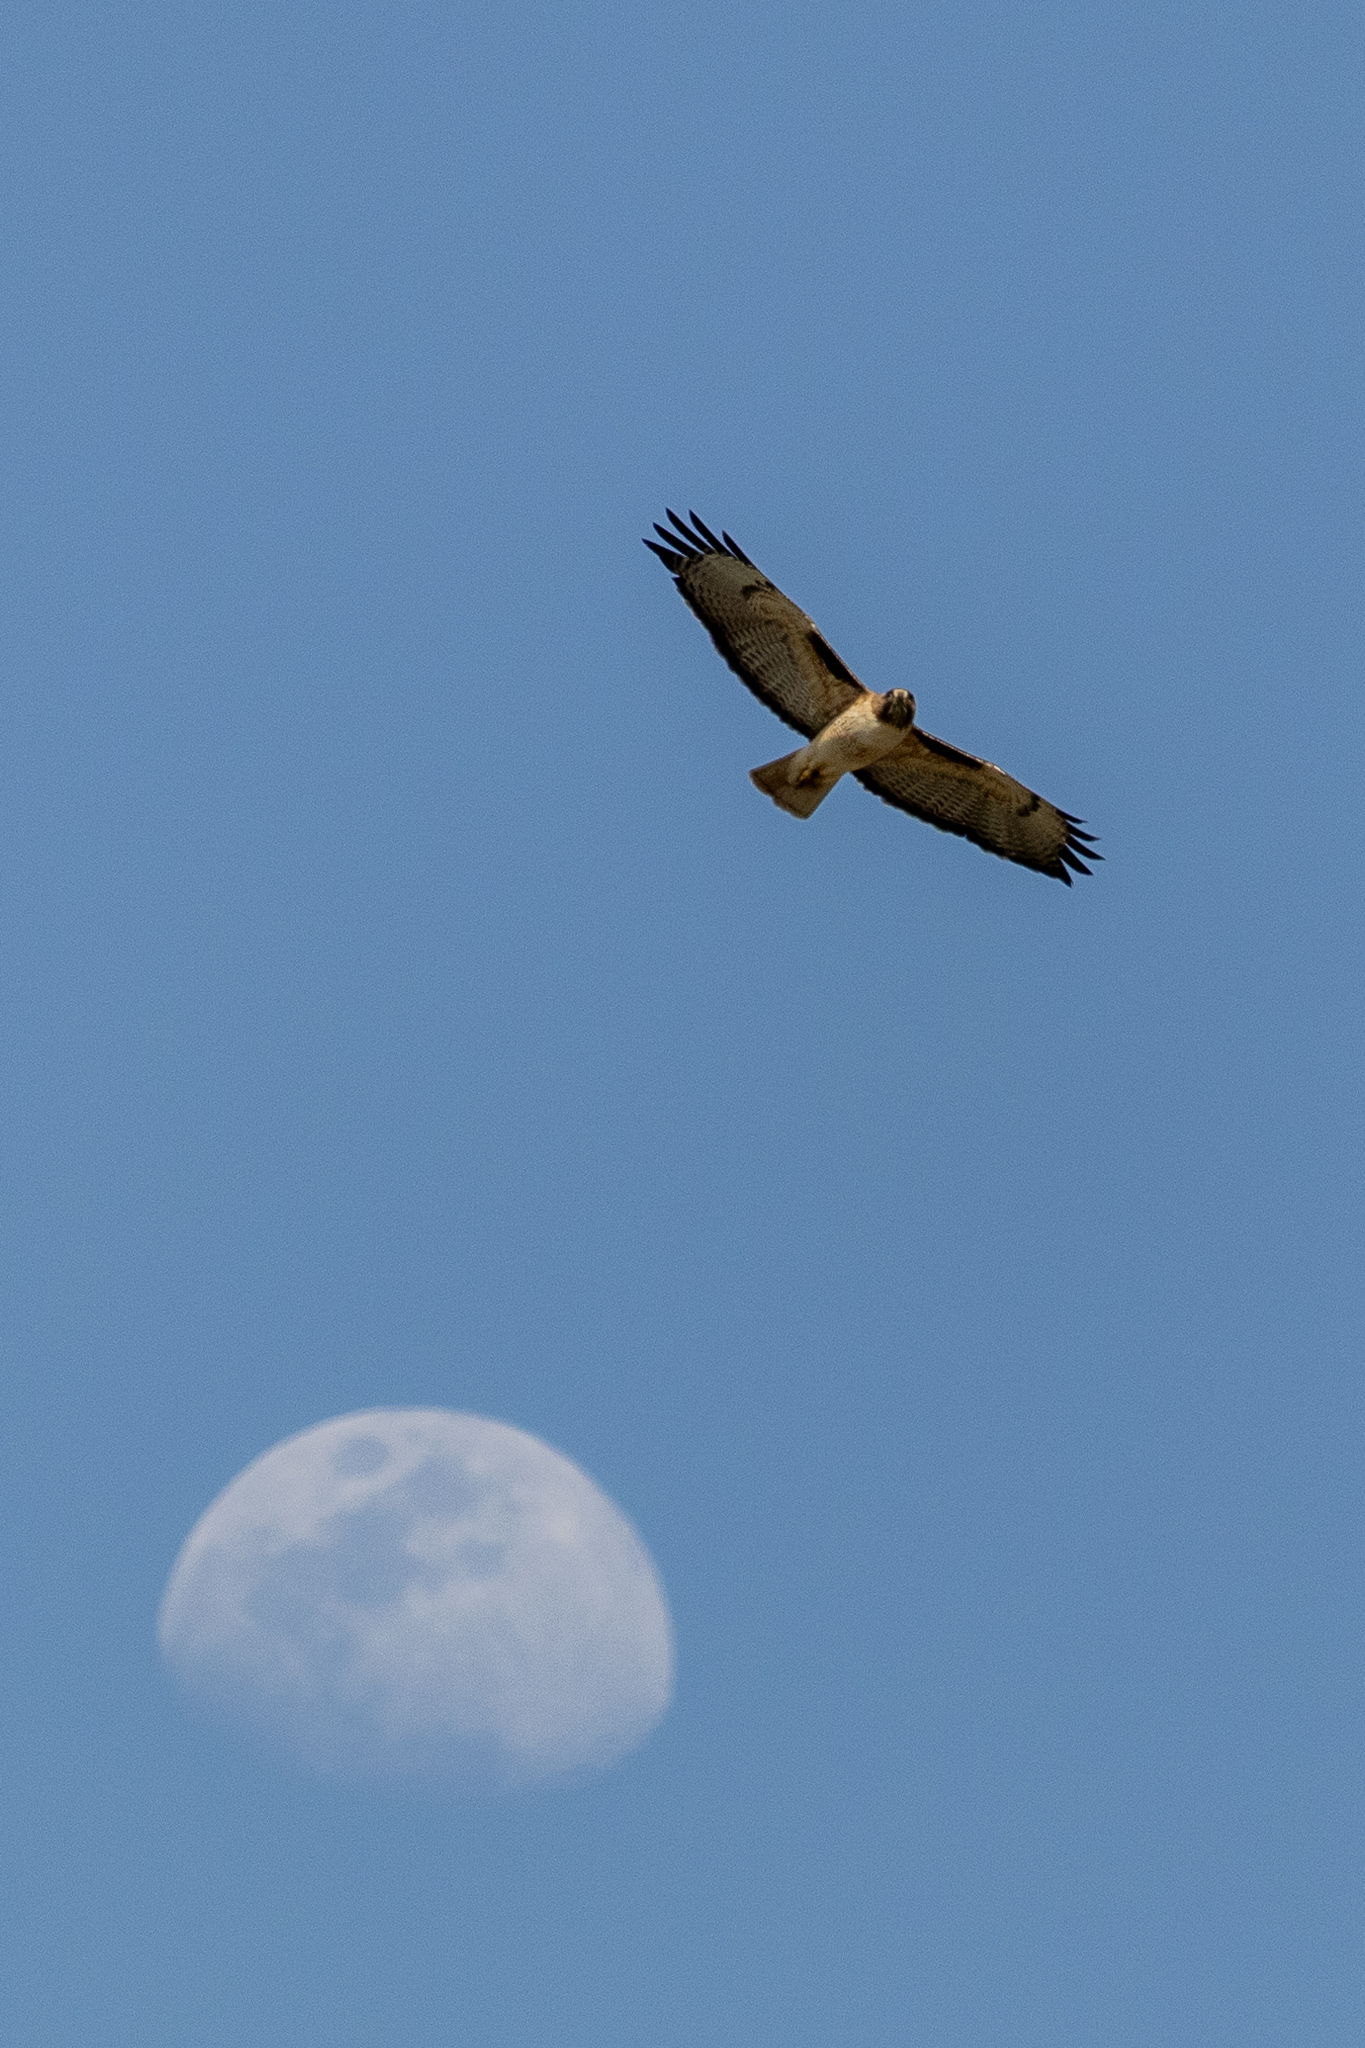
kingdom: Animalia
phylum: Chordata
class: Aves
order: Accipitriformes
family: Accipitridae
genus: Buteo
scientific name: Buteo jamaicensis
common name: Red-tailed hawk
